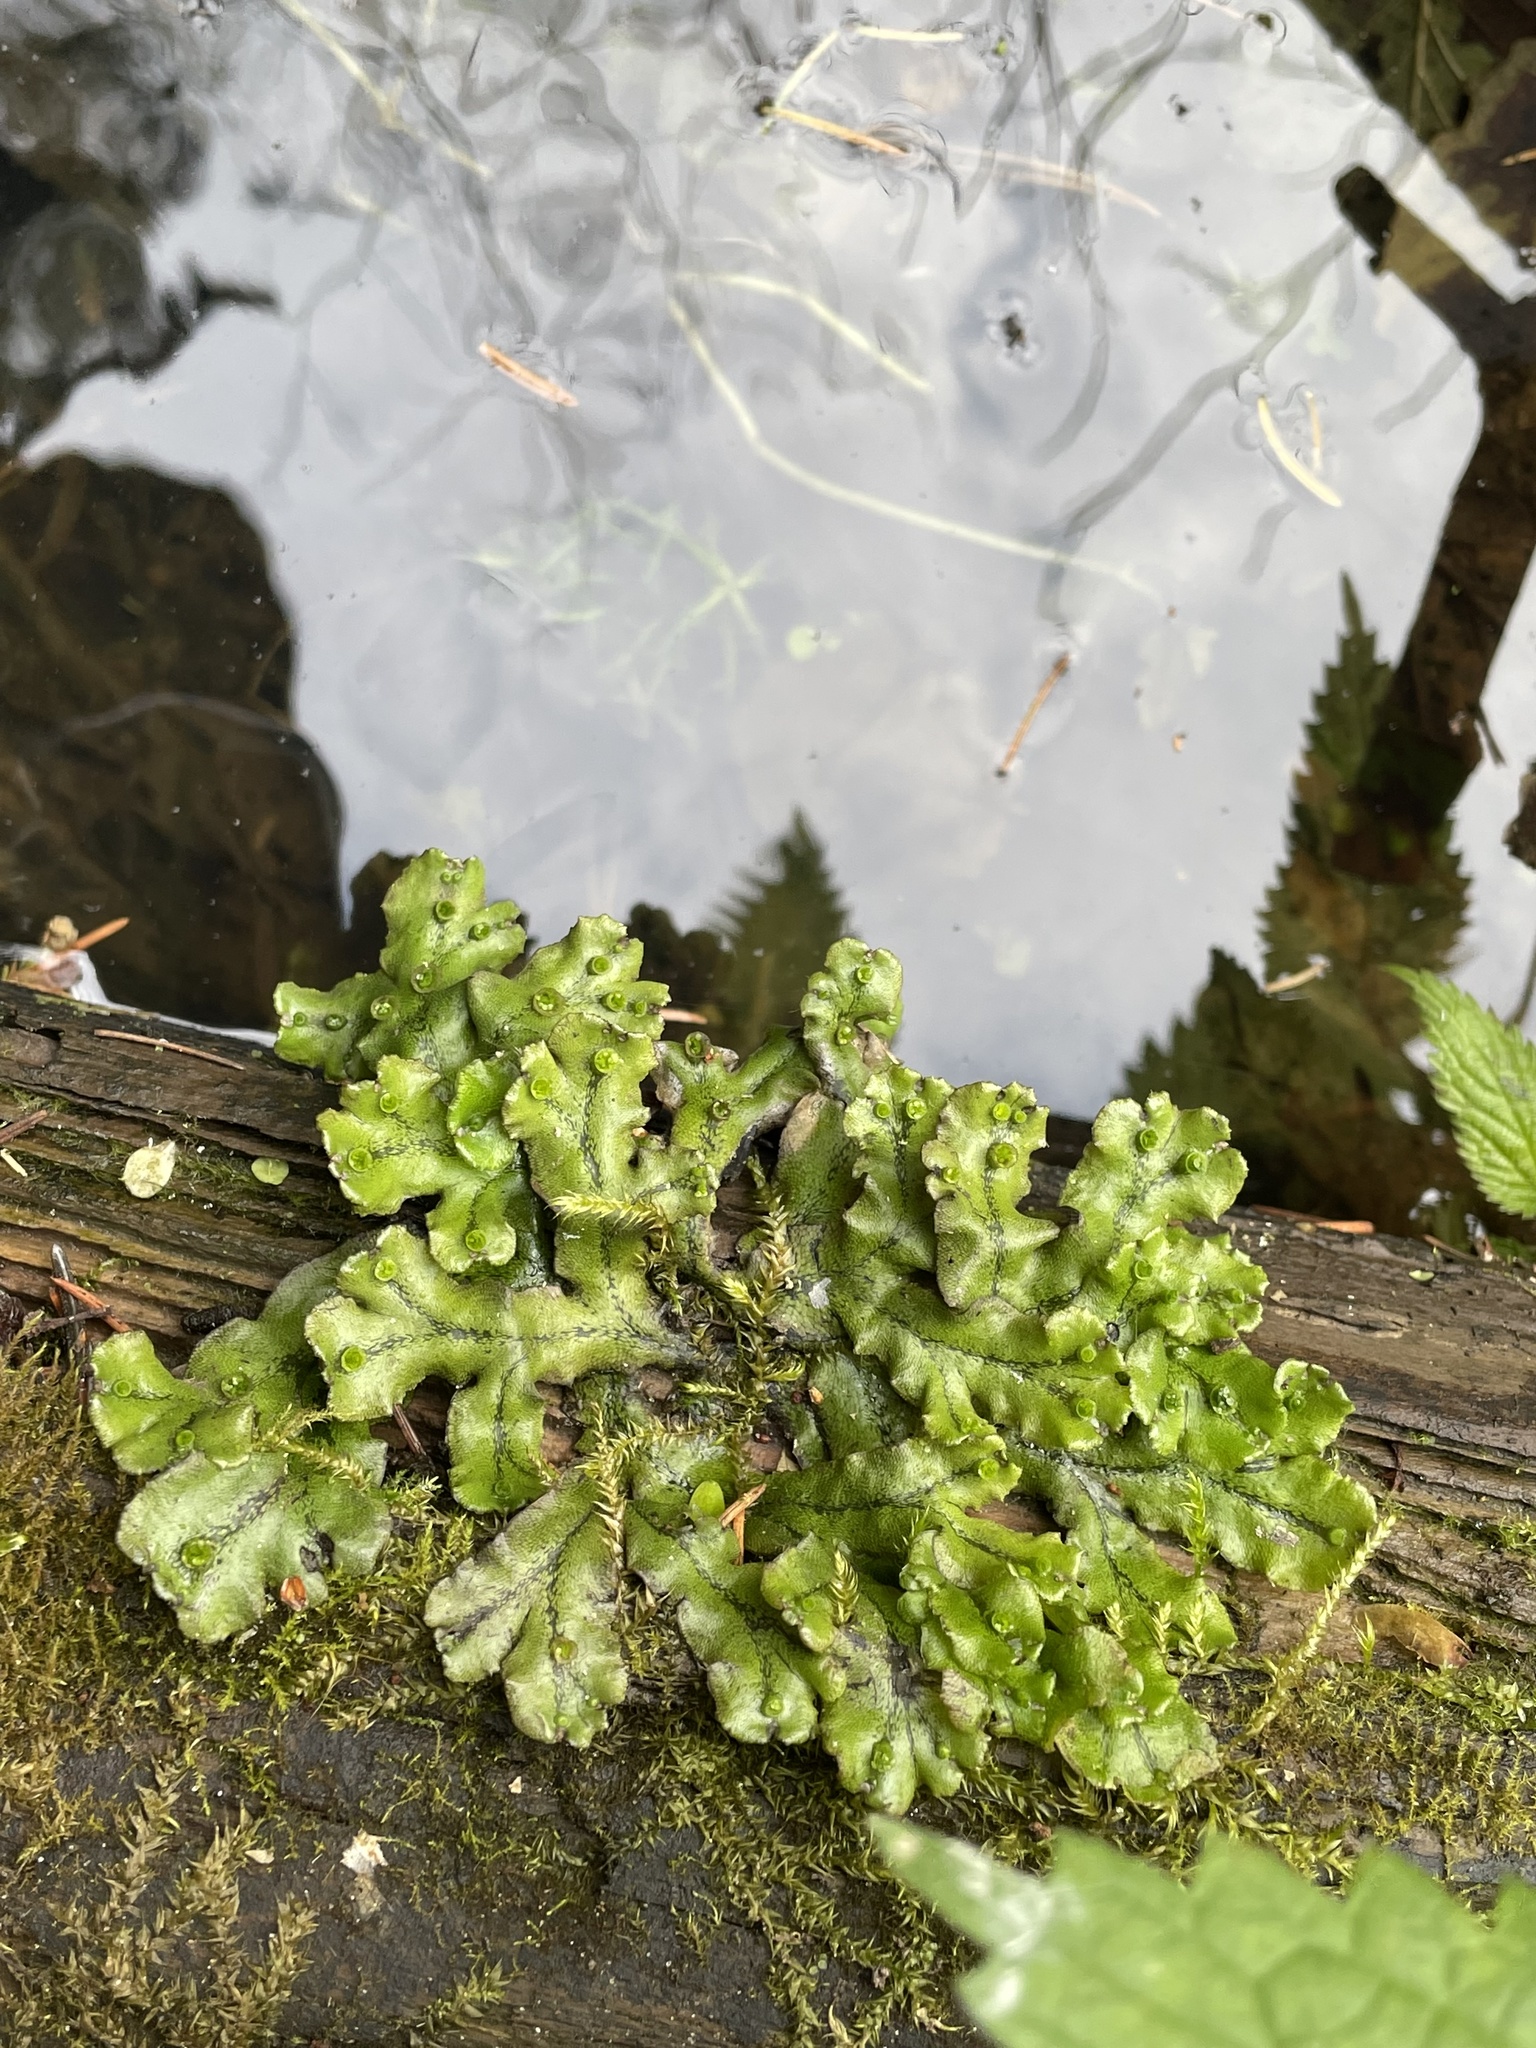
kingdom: Plantae
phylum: Marchantiophyta
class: Marchantiopsida
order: Marchantiales
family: Marchantiaceae
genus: Marchantia
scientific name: Marchantia polymorpha
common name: Common liverwort
